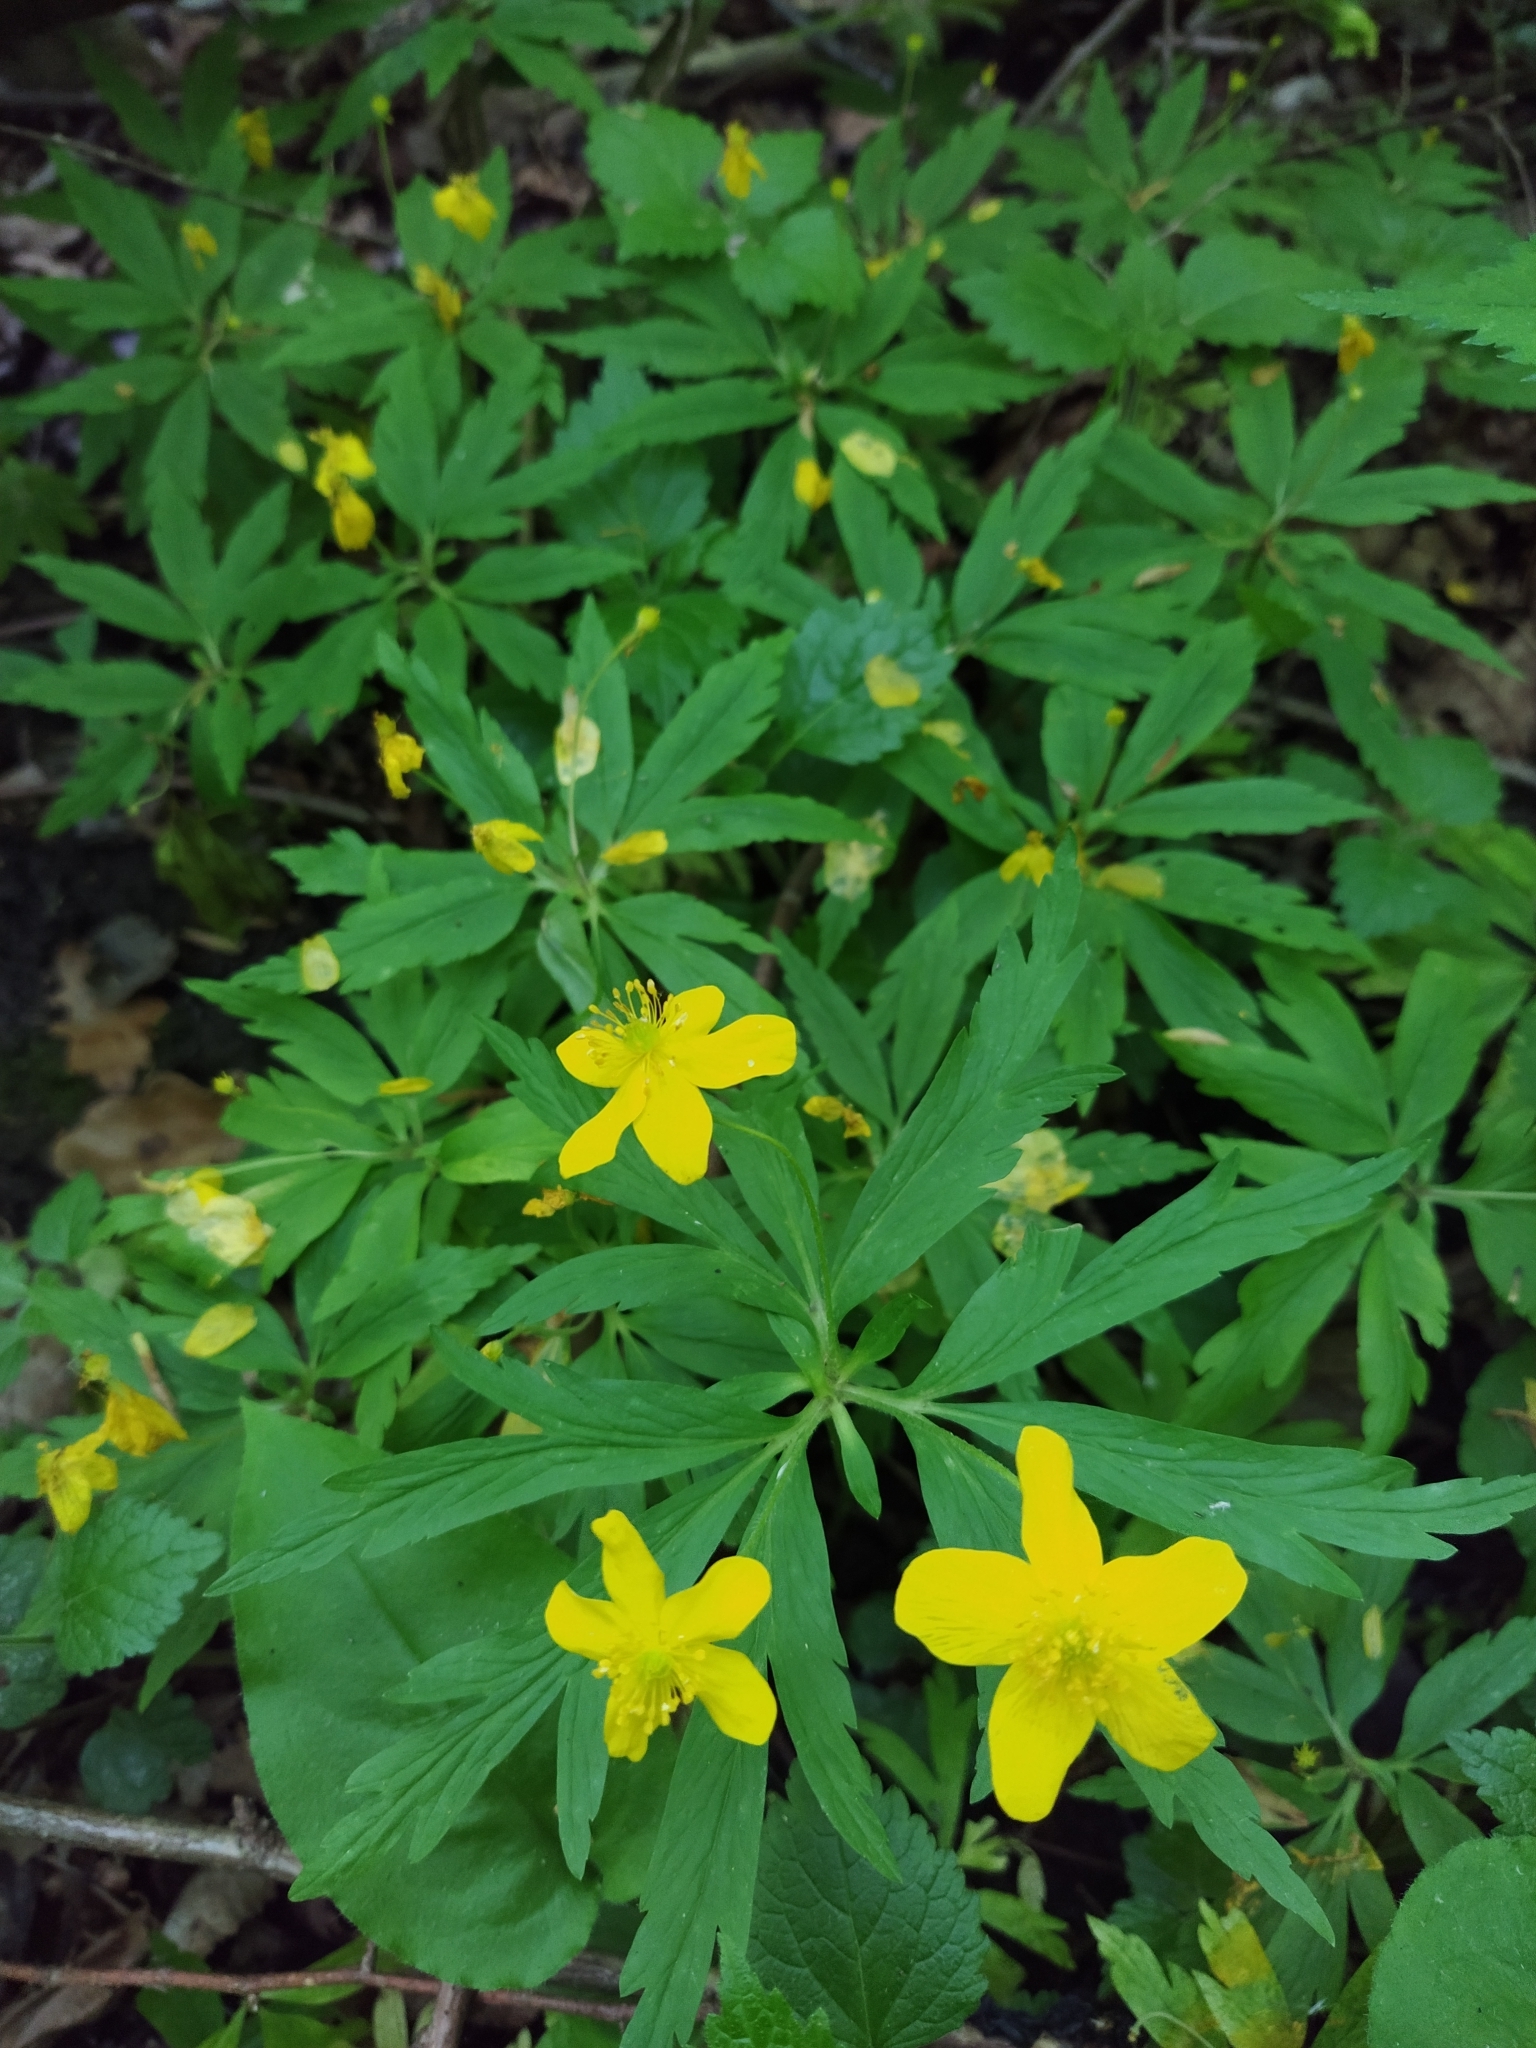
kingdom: Plantae
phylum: Tracheophyta
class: Magnoliopsida
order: Ranunculales
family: Ranunculaceae
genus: Anemone
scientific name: Anemone ranunculoides
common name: Yellow anemone
